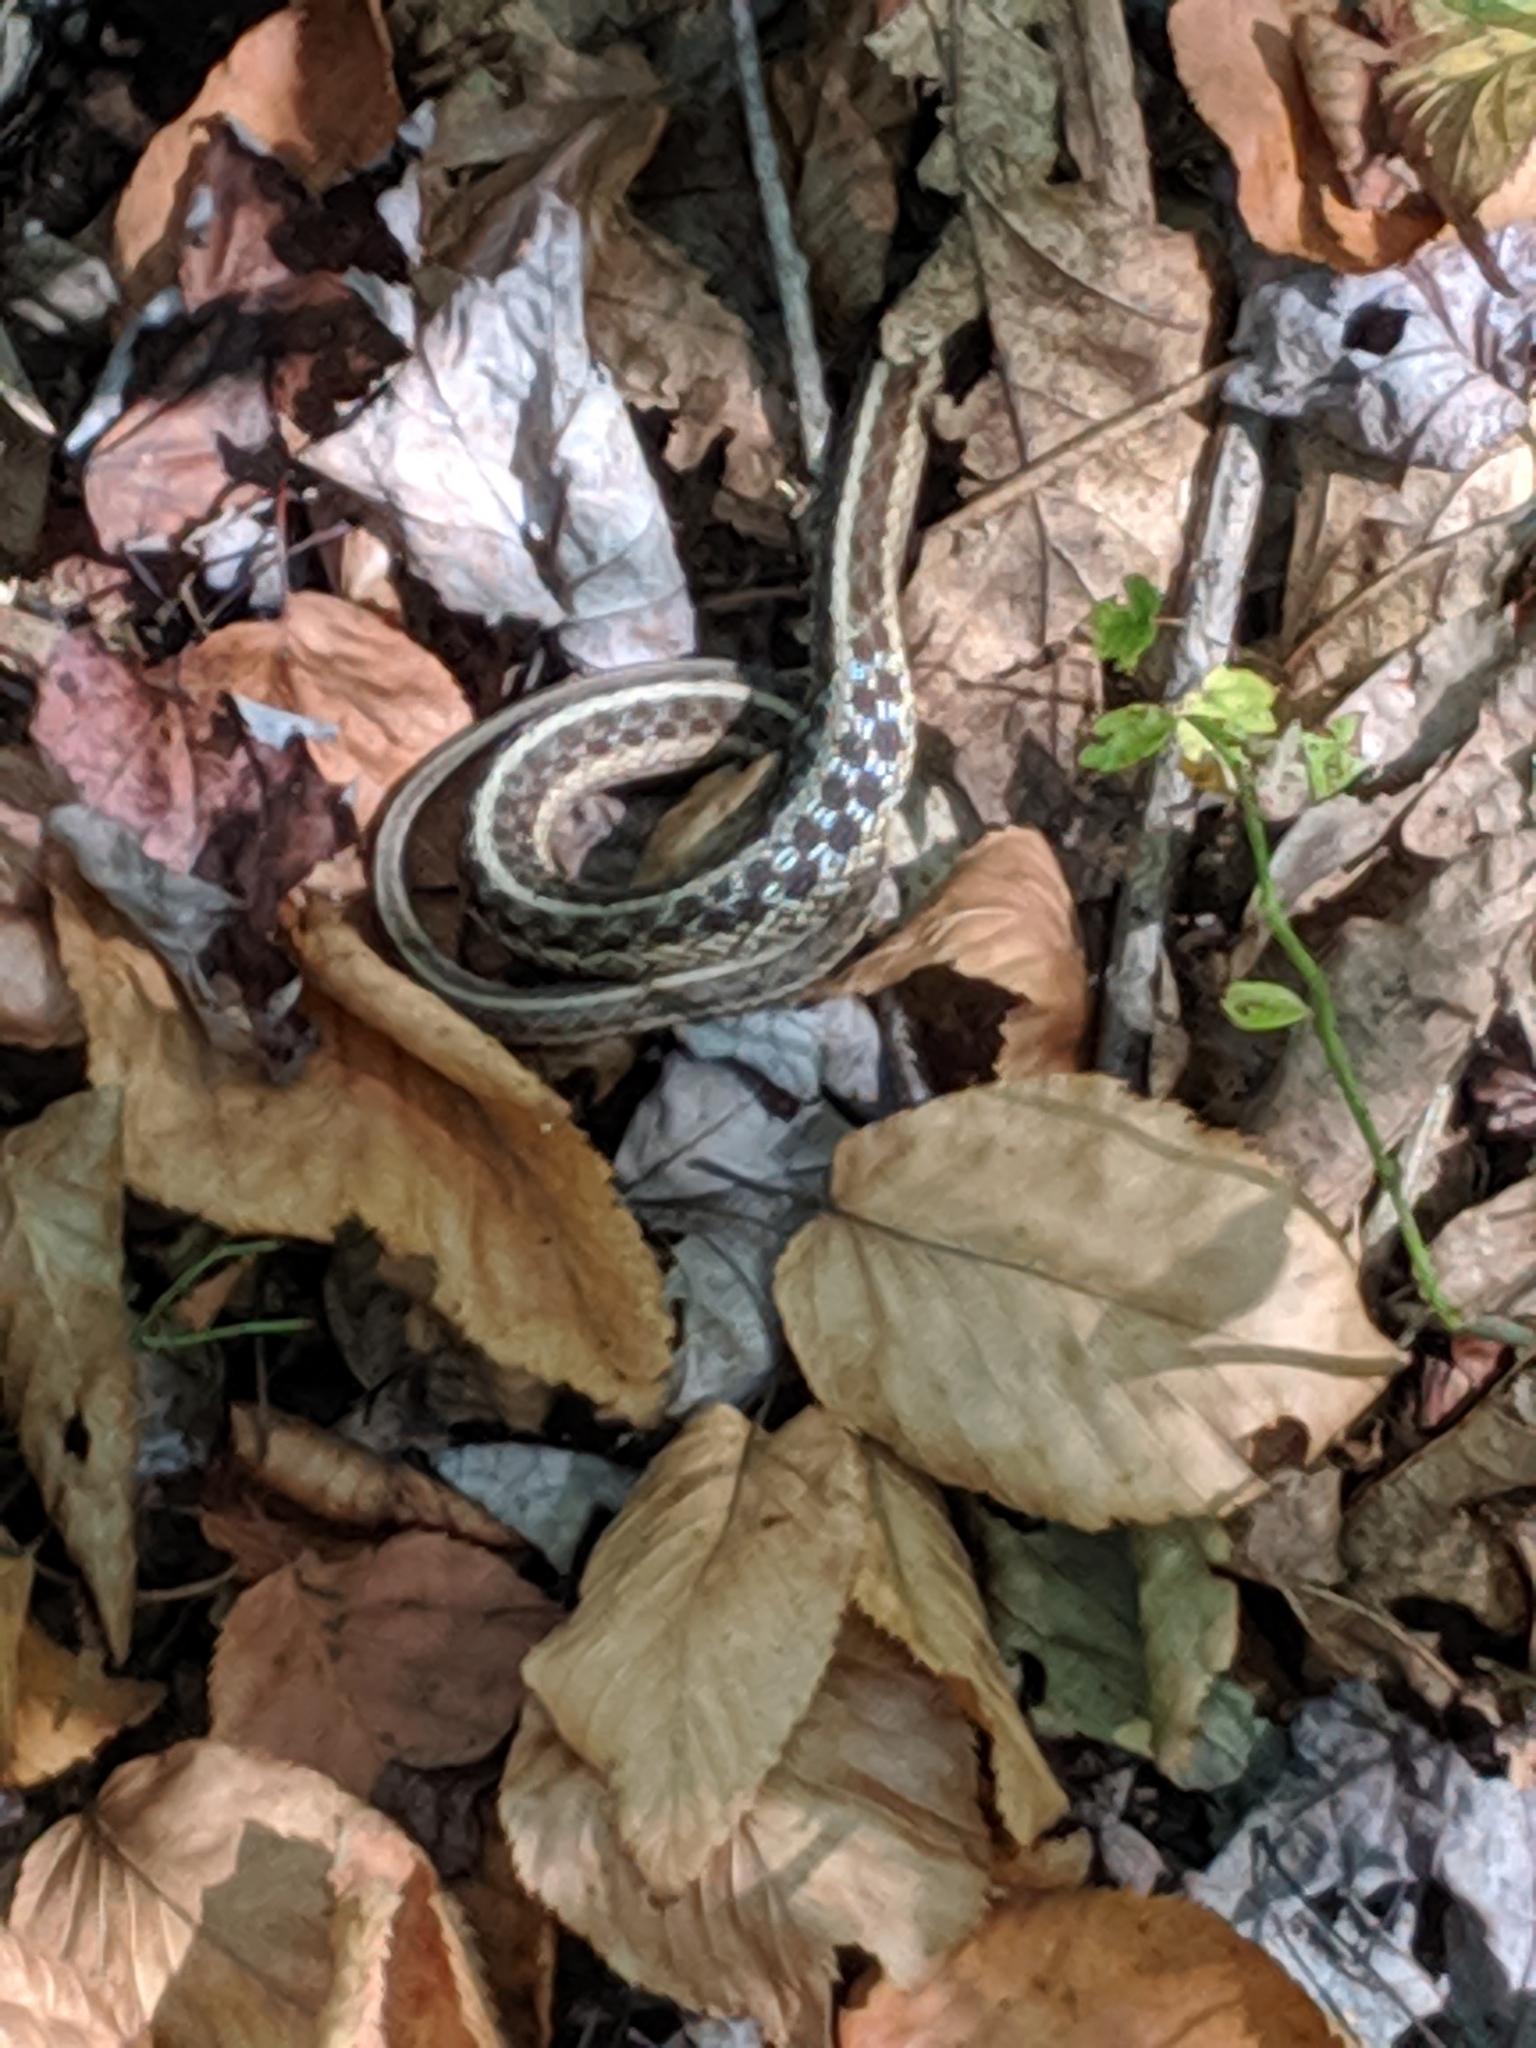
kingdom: Animalia
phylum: Chordata
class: Squamata
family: Colubridae
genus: Thamnophis
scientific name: Thamnophis sirtalis
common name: Common garter snake
